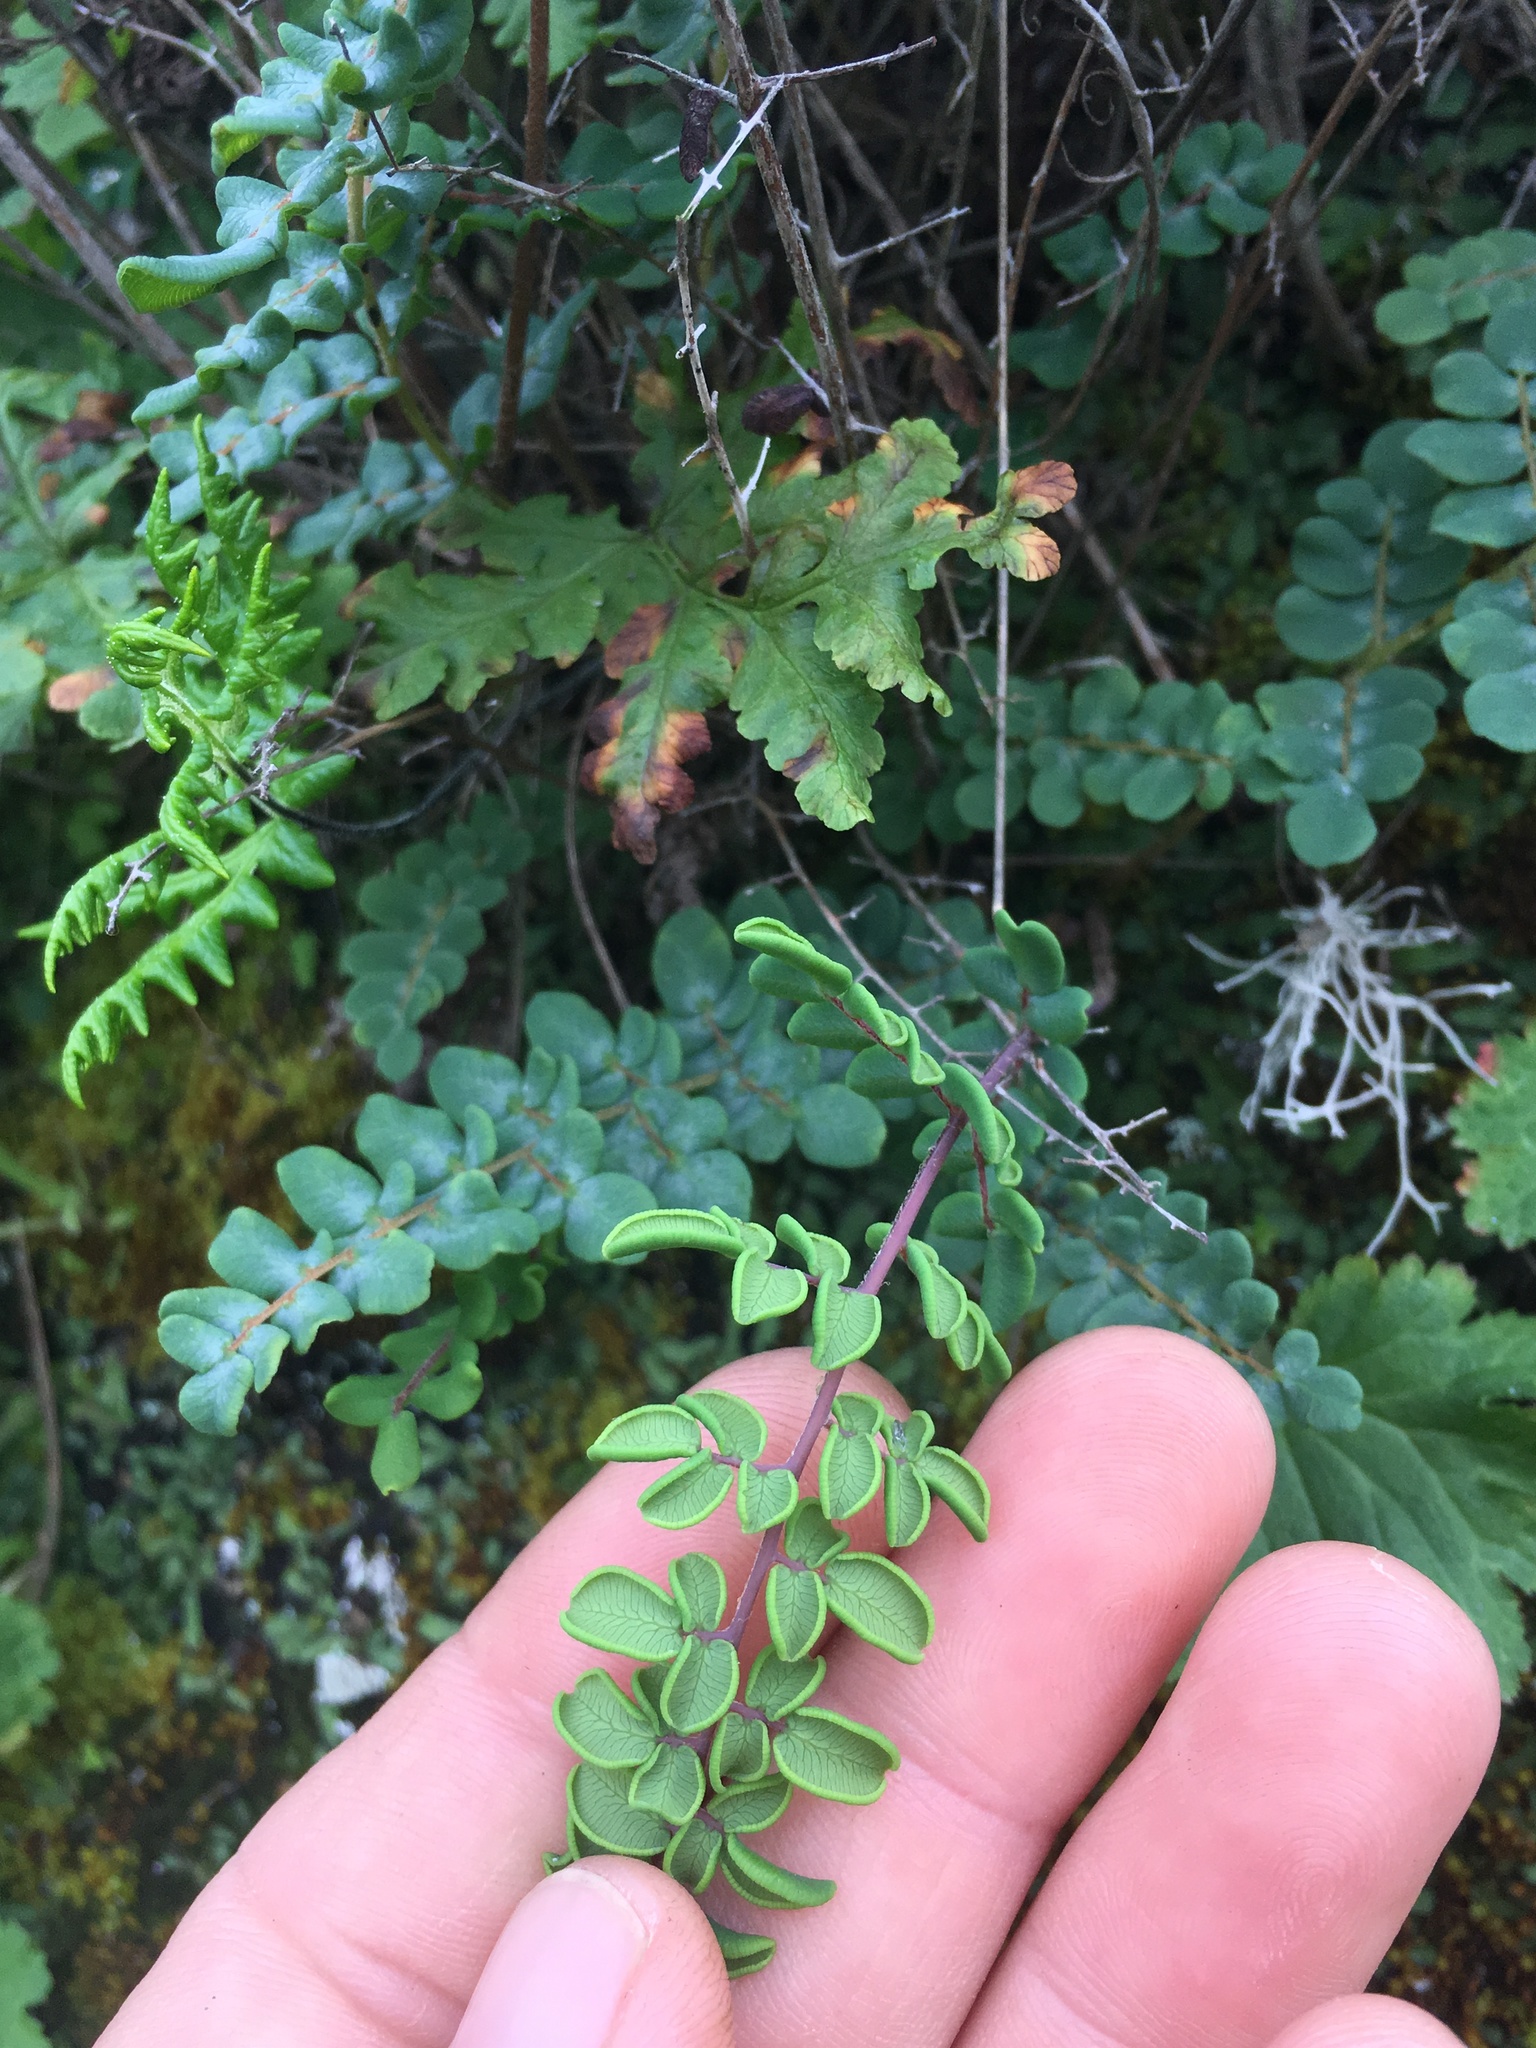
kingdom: Plantae
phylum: Tracheophyta
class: Polypodiopsida
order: Polypodiales
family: Pteridaceae
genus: Pellaea
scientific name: Pellaea andromedifolia
